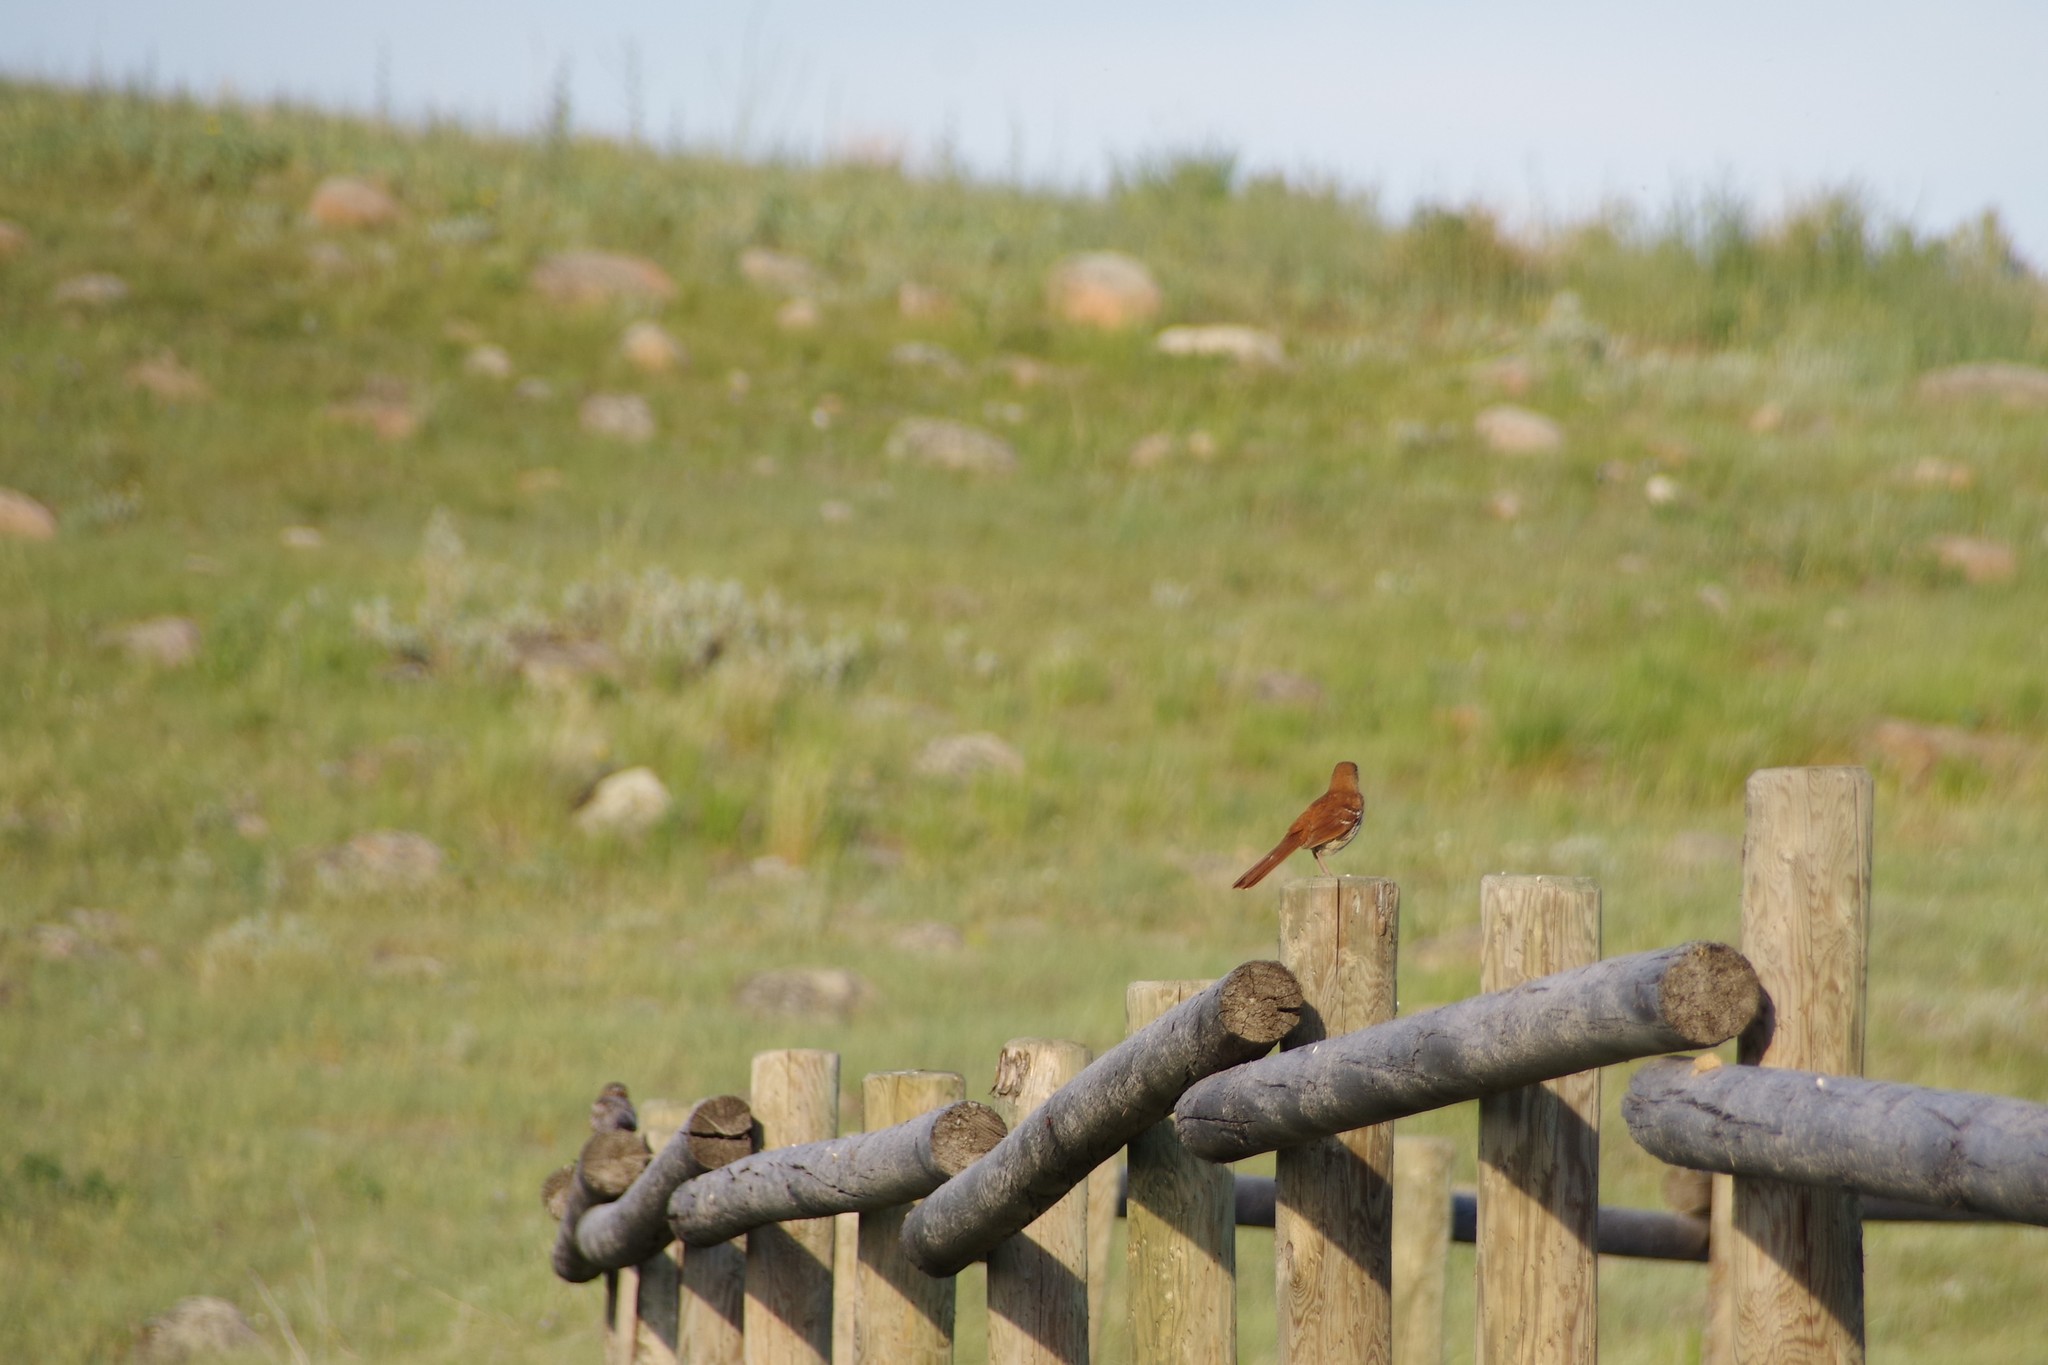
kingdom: Animalia
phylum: Chordata
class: Aves
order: Passeriformes
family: Mimidae
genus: Toxostoma
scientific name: Toxostoma rufum
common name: Brown thrasher
